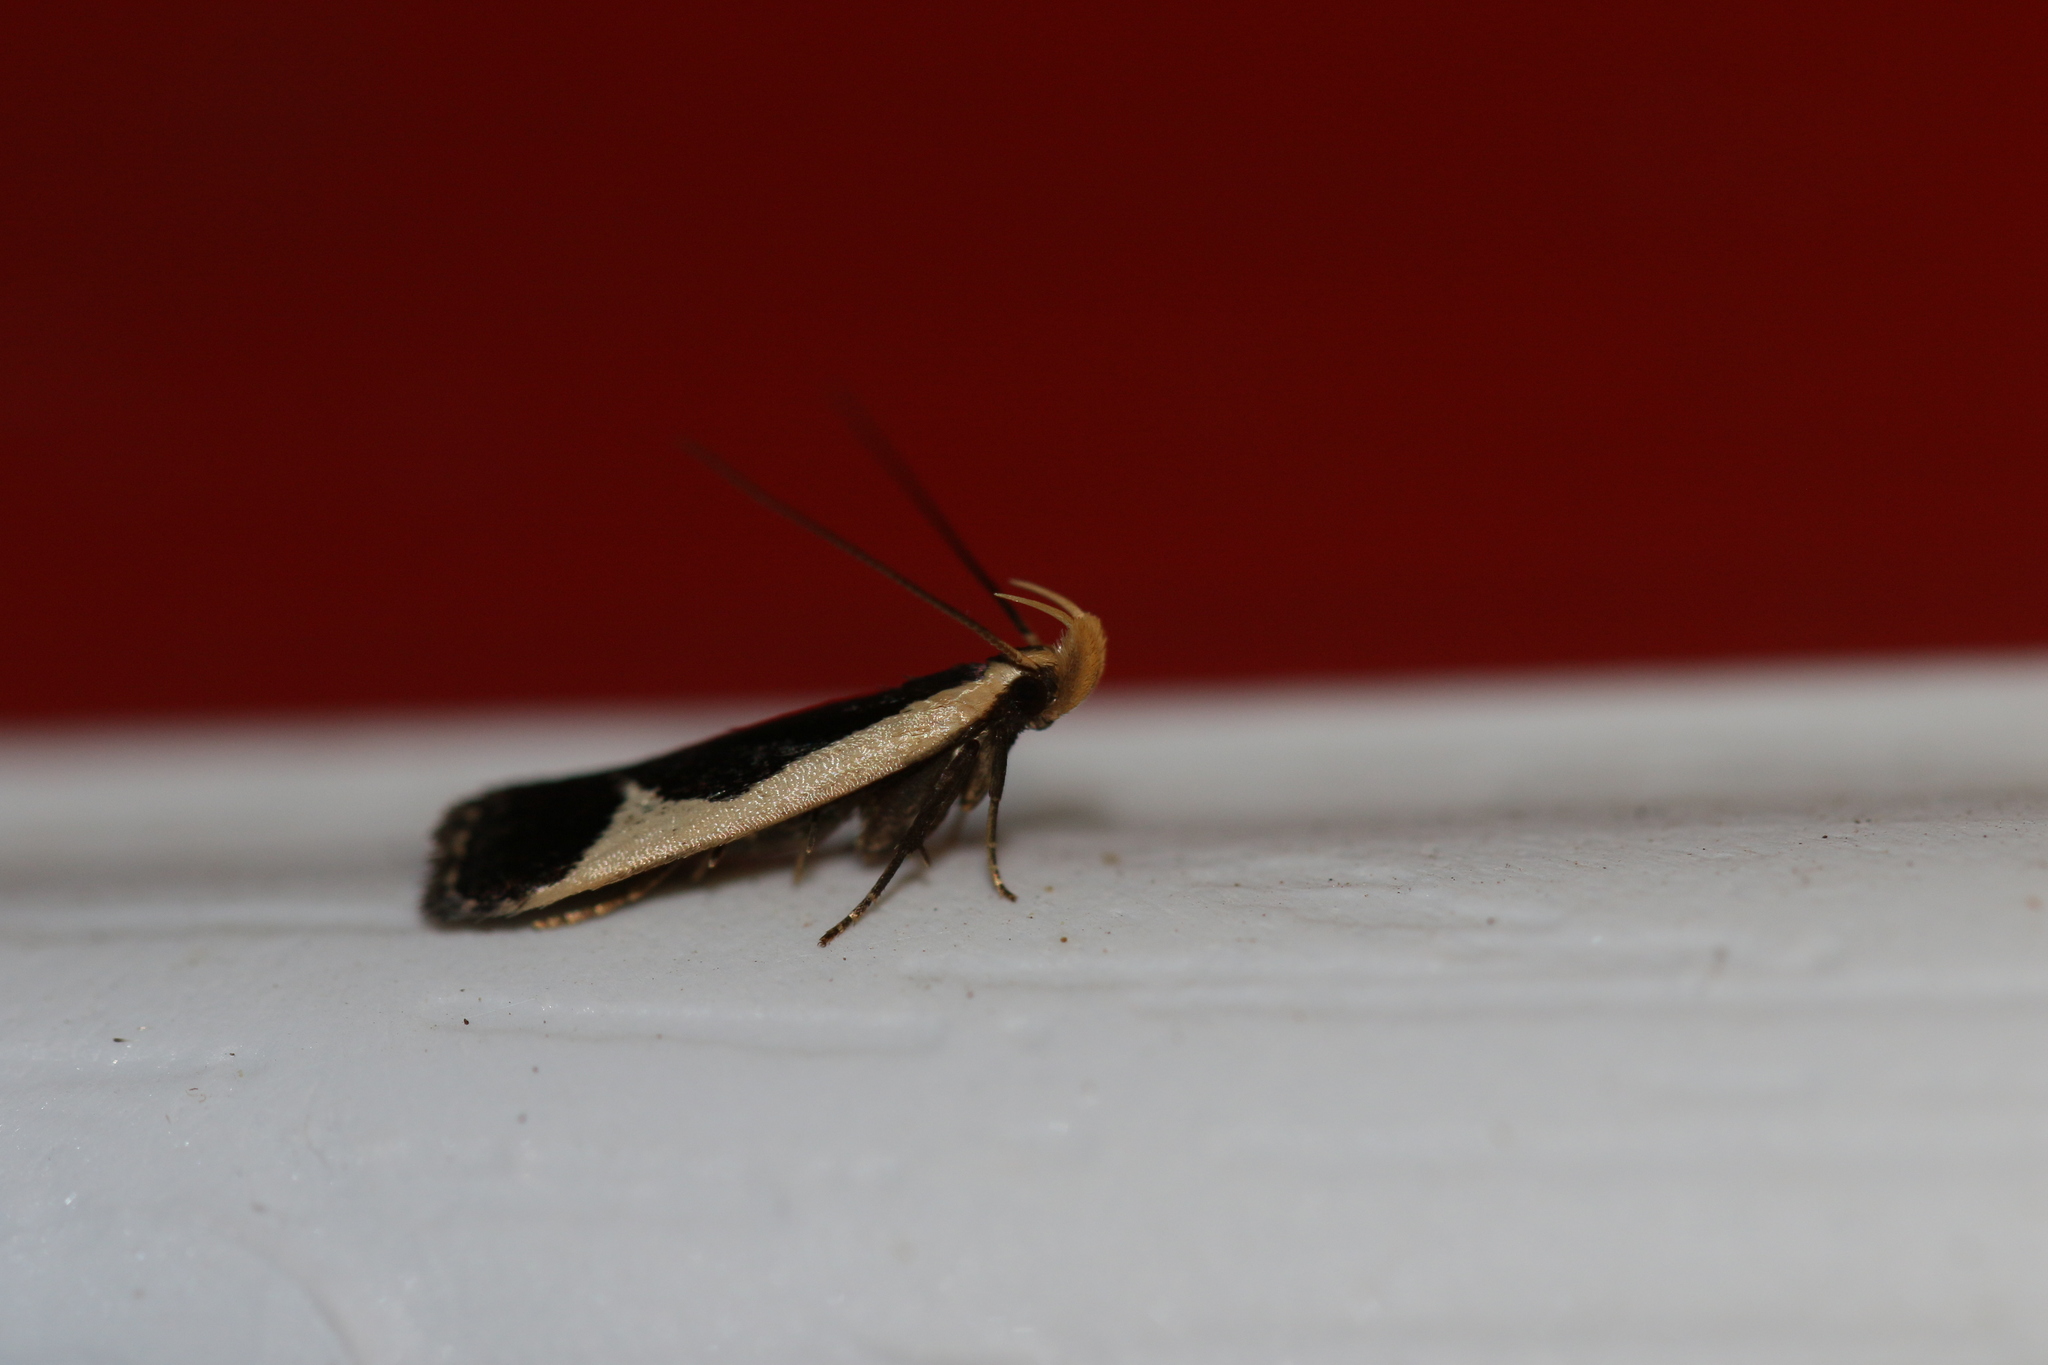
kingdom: Animalia
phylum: Arthropoda
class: Insecta
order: Lepidoptera
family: Gelechiidae
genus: Dichomeris
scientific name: Dichomeris flavocostella
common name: Cream-edged dichomeris moth
